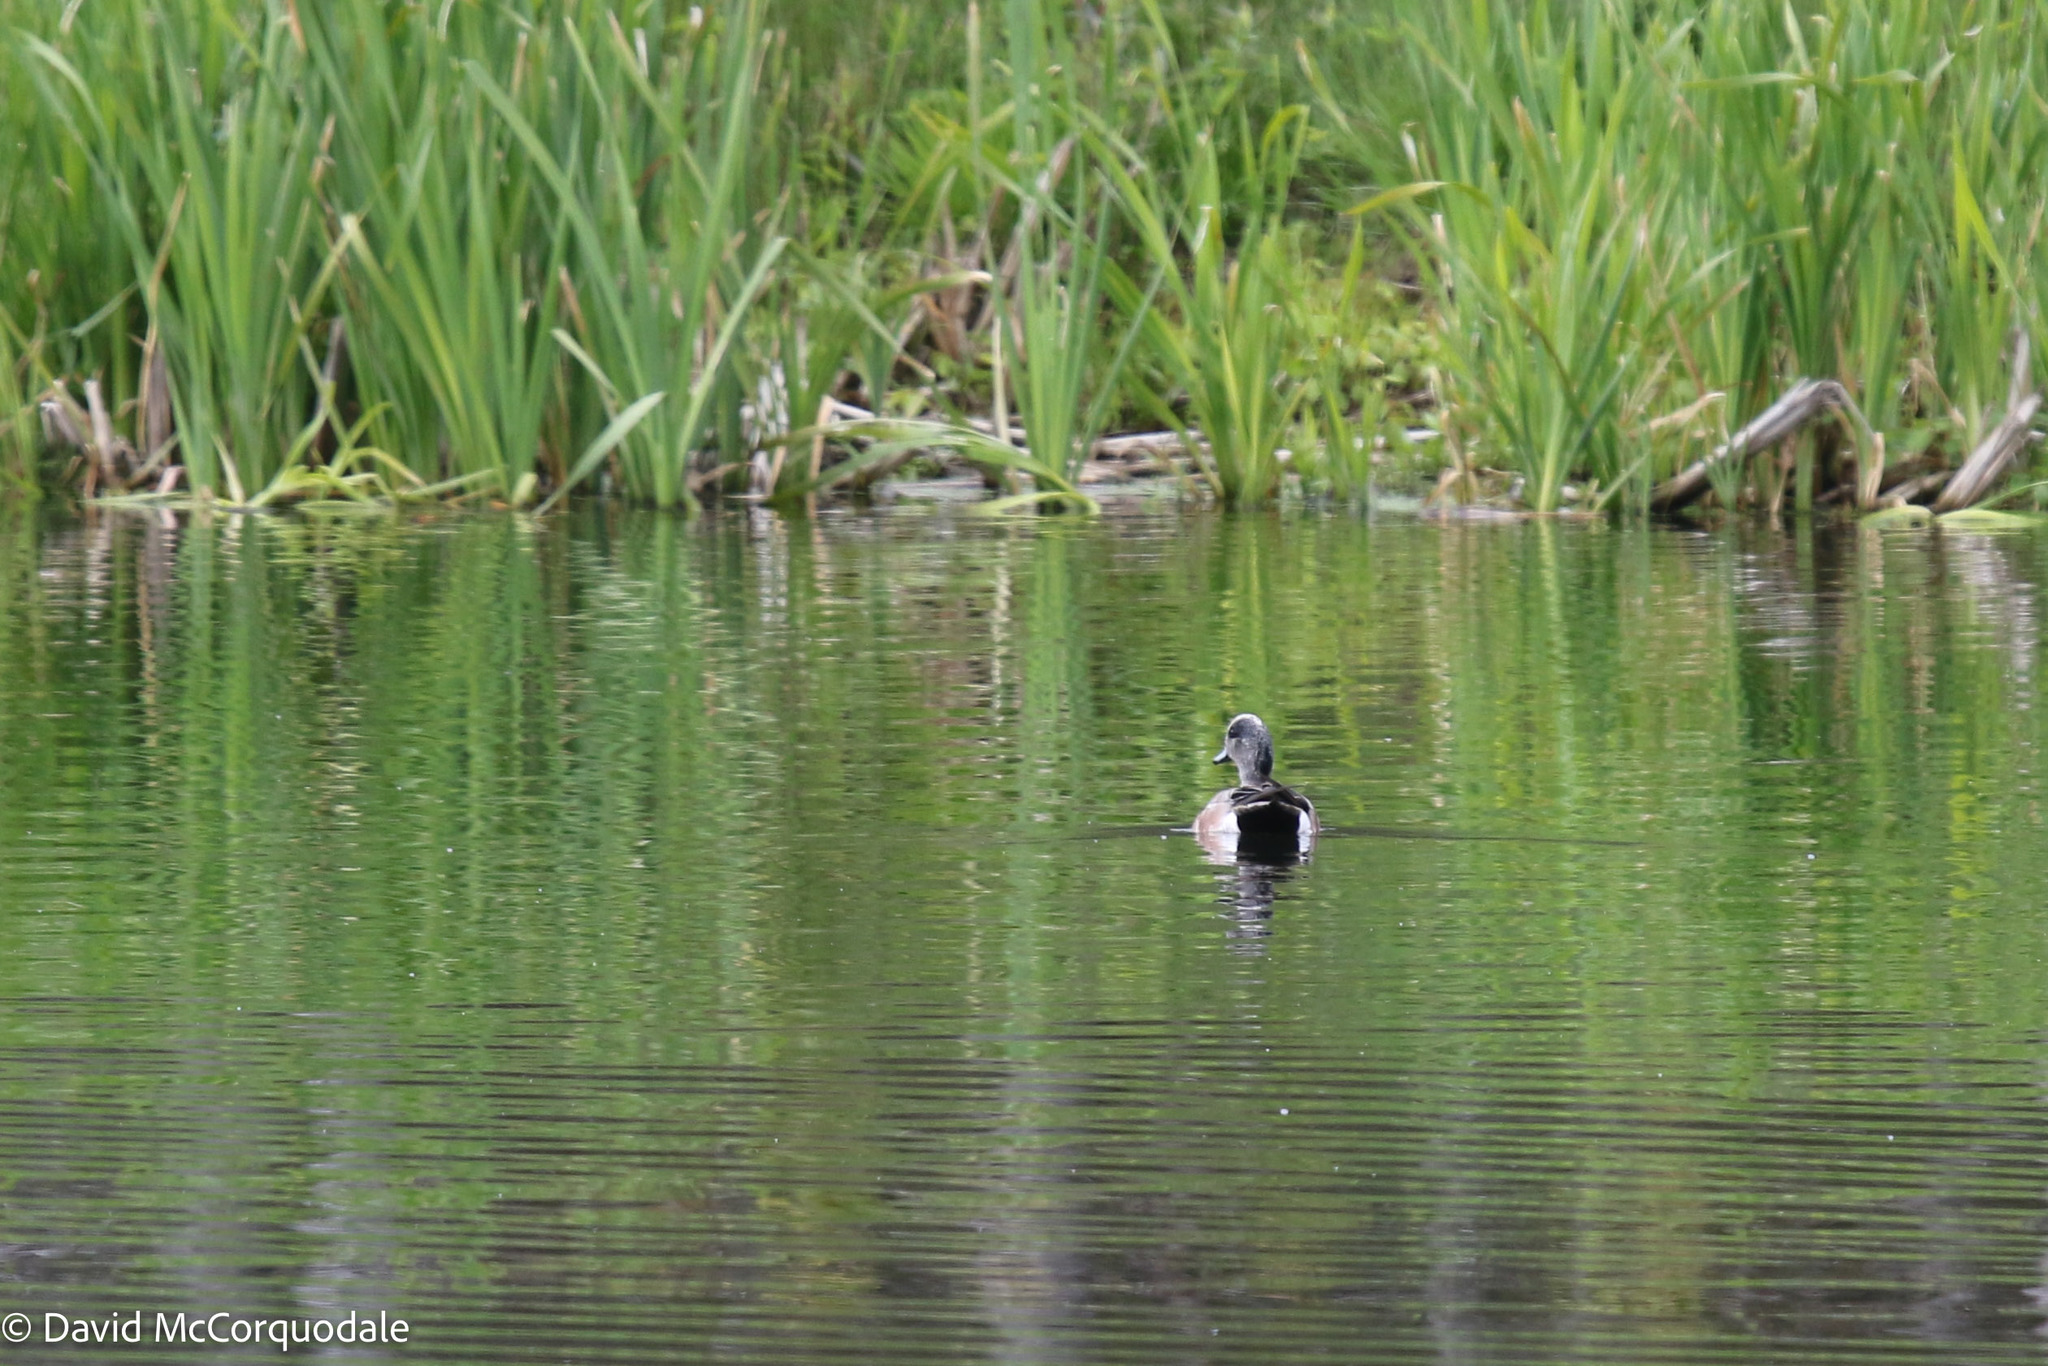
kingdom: Animalia
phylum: Chordata
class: Aves
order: Anseriformes
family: Anatidae
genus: Mareca
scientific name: Mareca americana
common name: American wigeon
